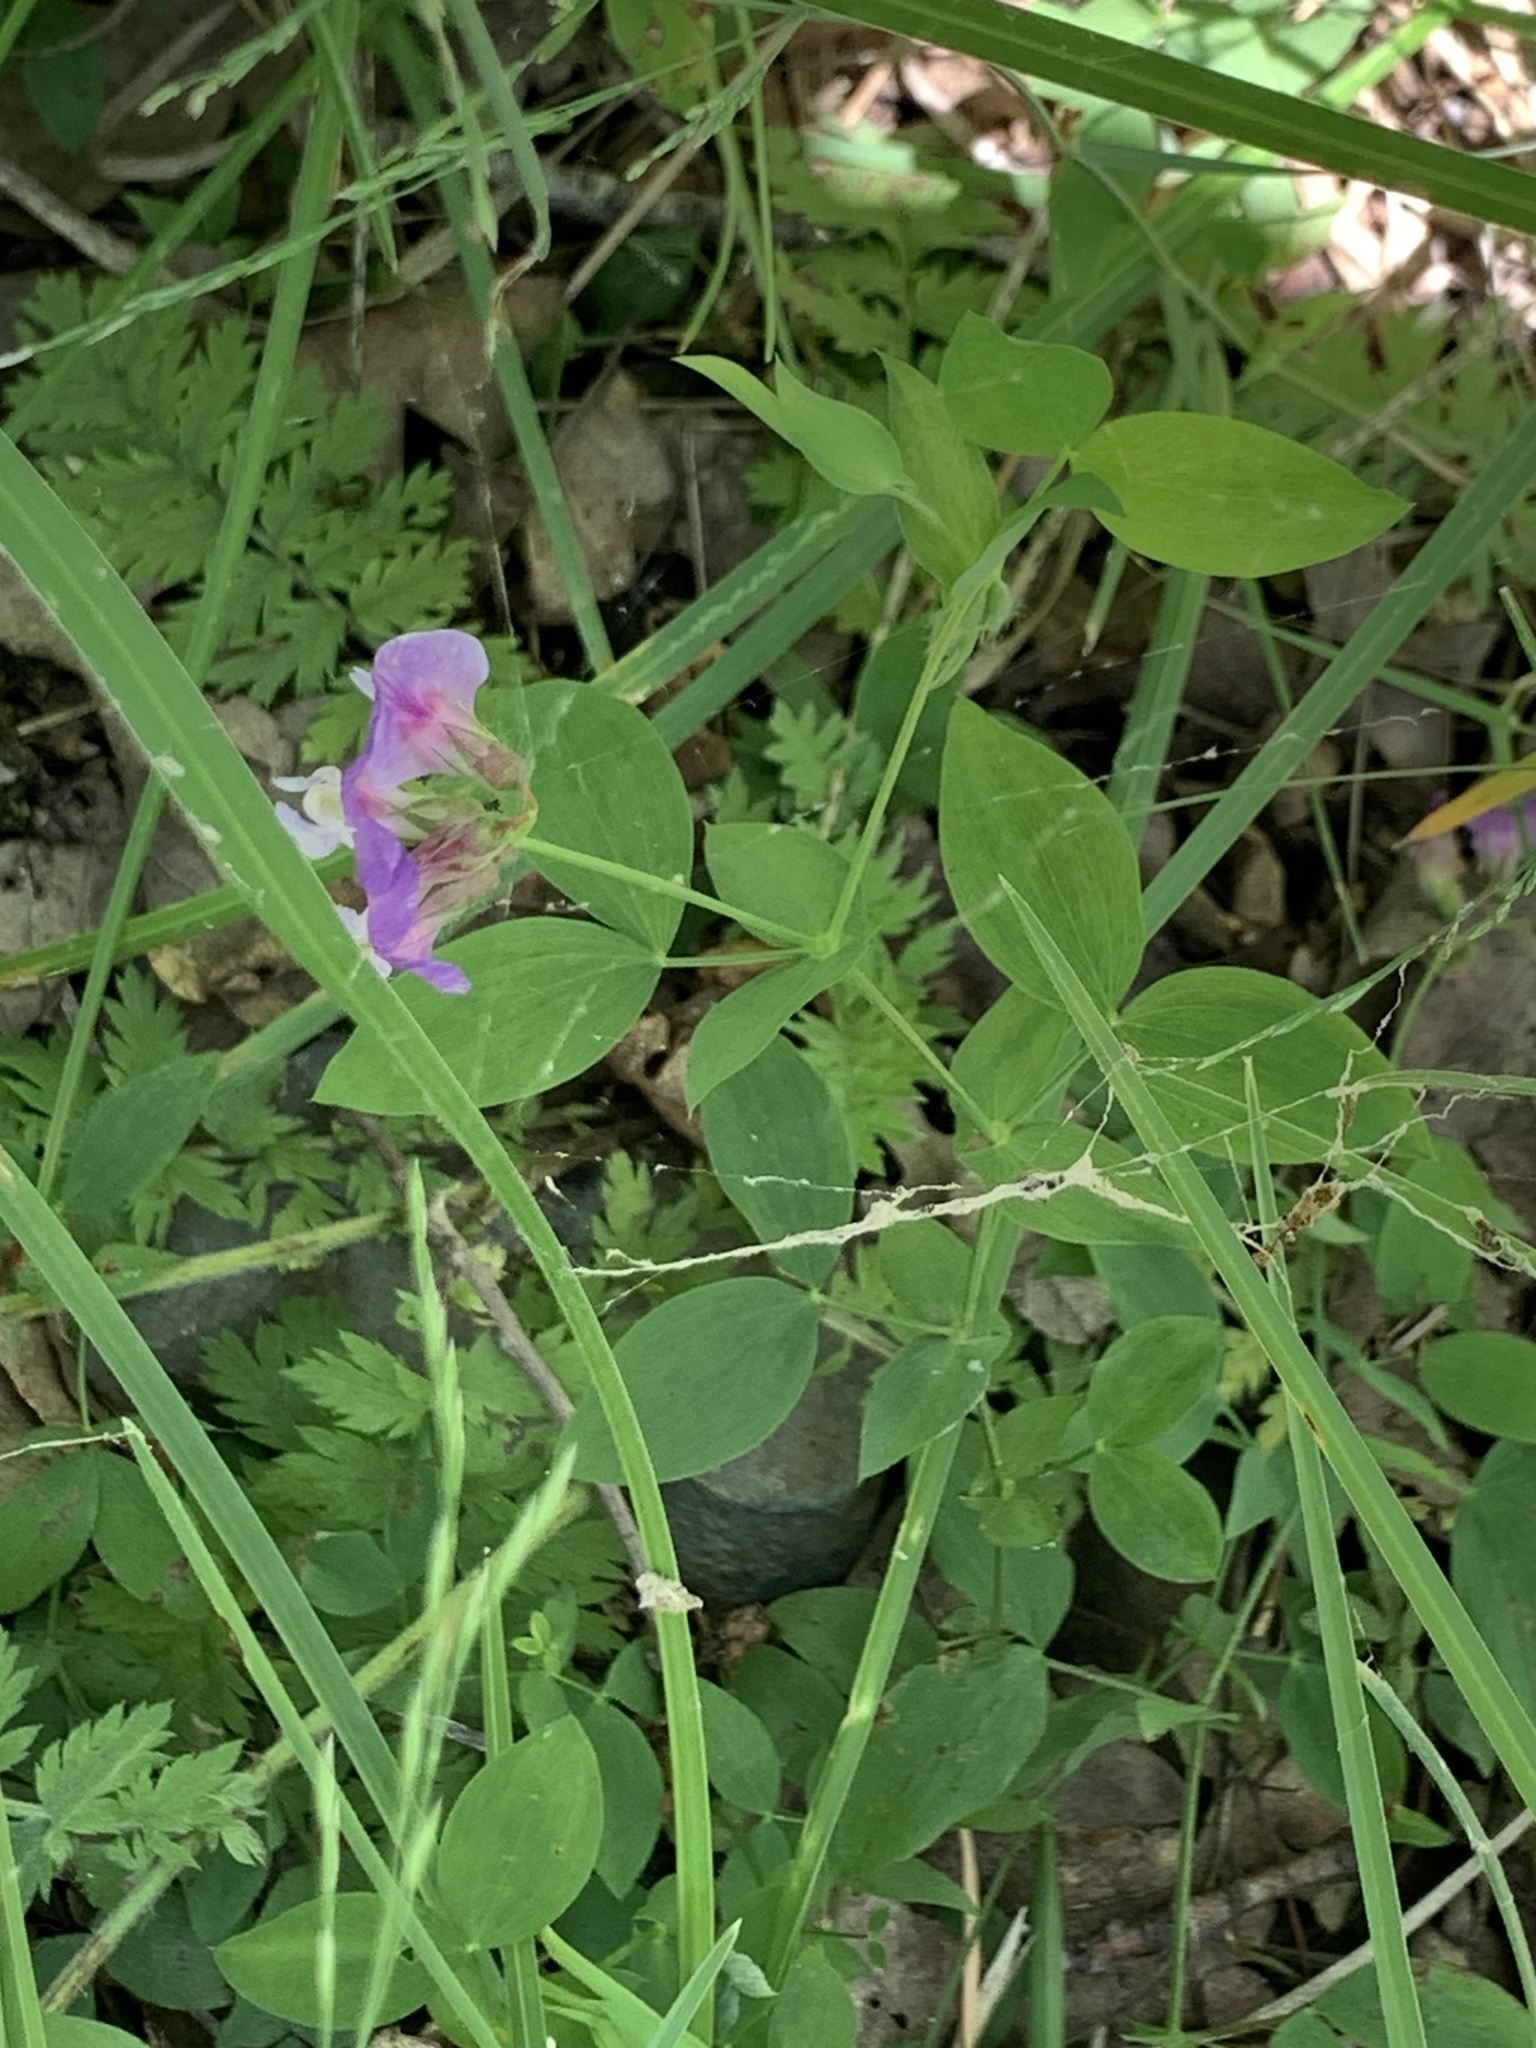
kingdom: Plantae
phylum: Tracheophyta
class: Magnoliopsida
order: Fabales
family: Fabaceae
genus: Lathyrus
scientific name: Lathyrus laxiflorus
